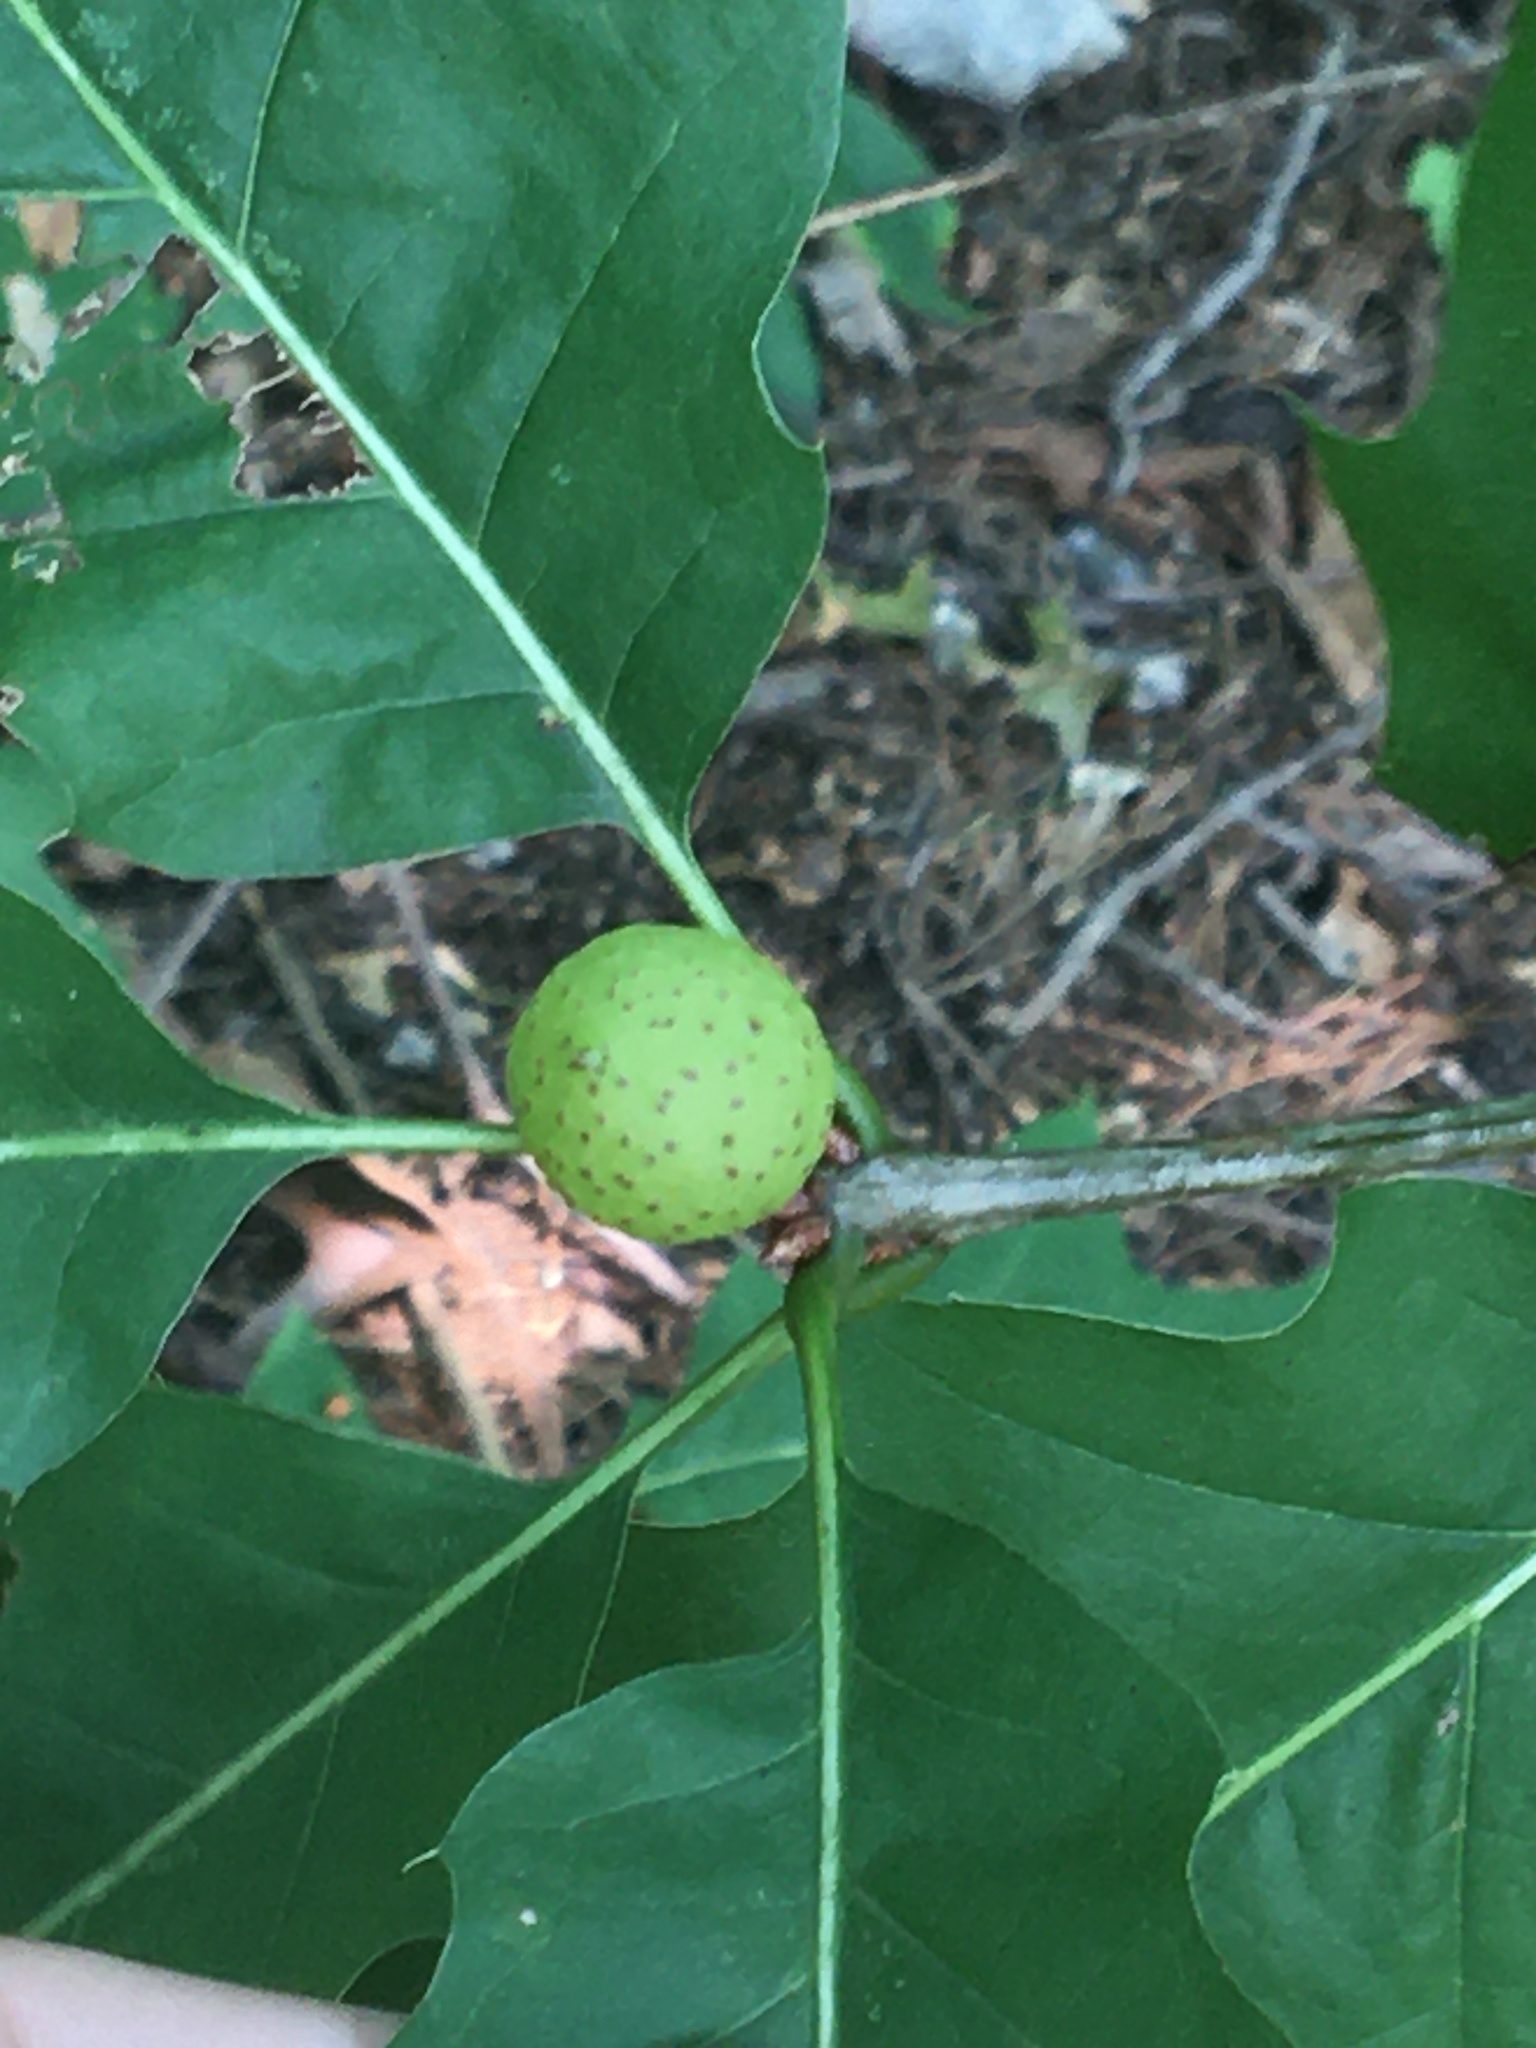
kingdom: Animalia
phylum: Arthropoda
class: Insecta
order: Hymenoptera
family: Cynipidae
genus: Amphibolips
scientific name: Amphibolips
